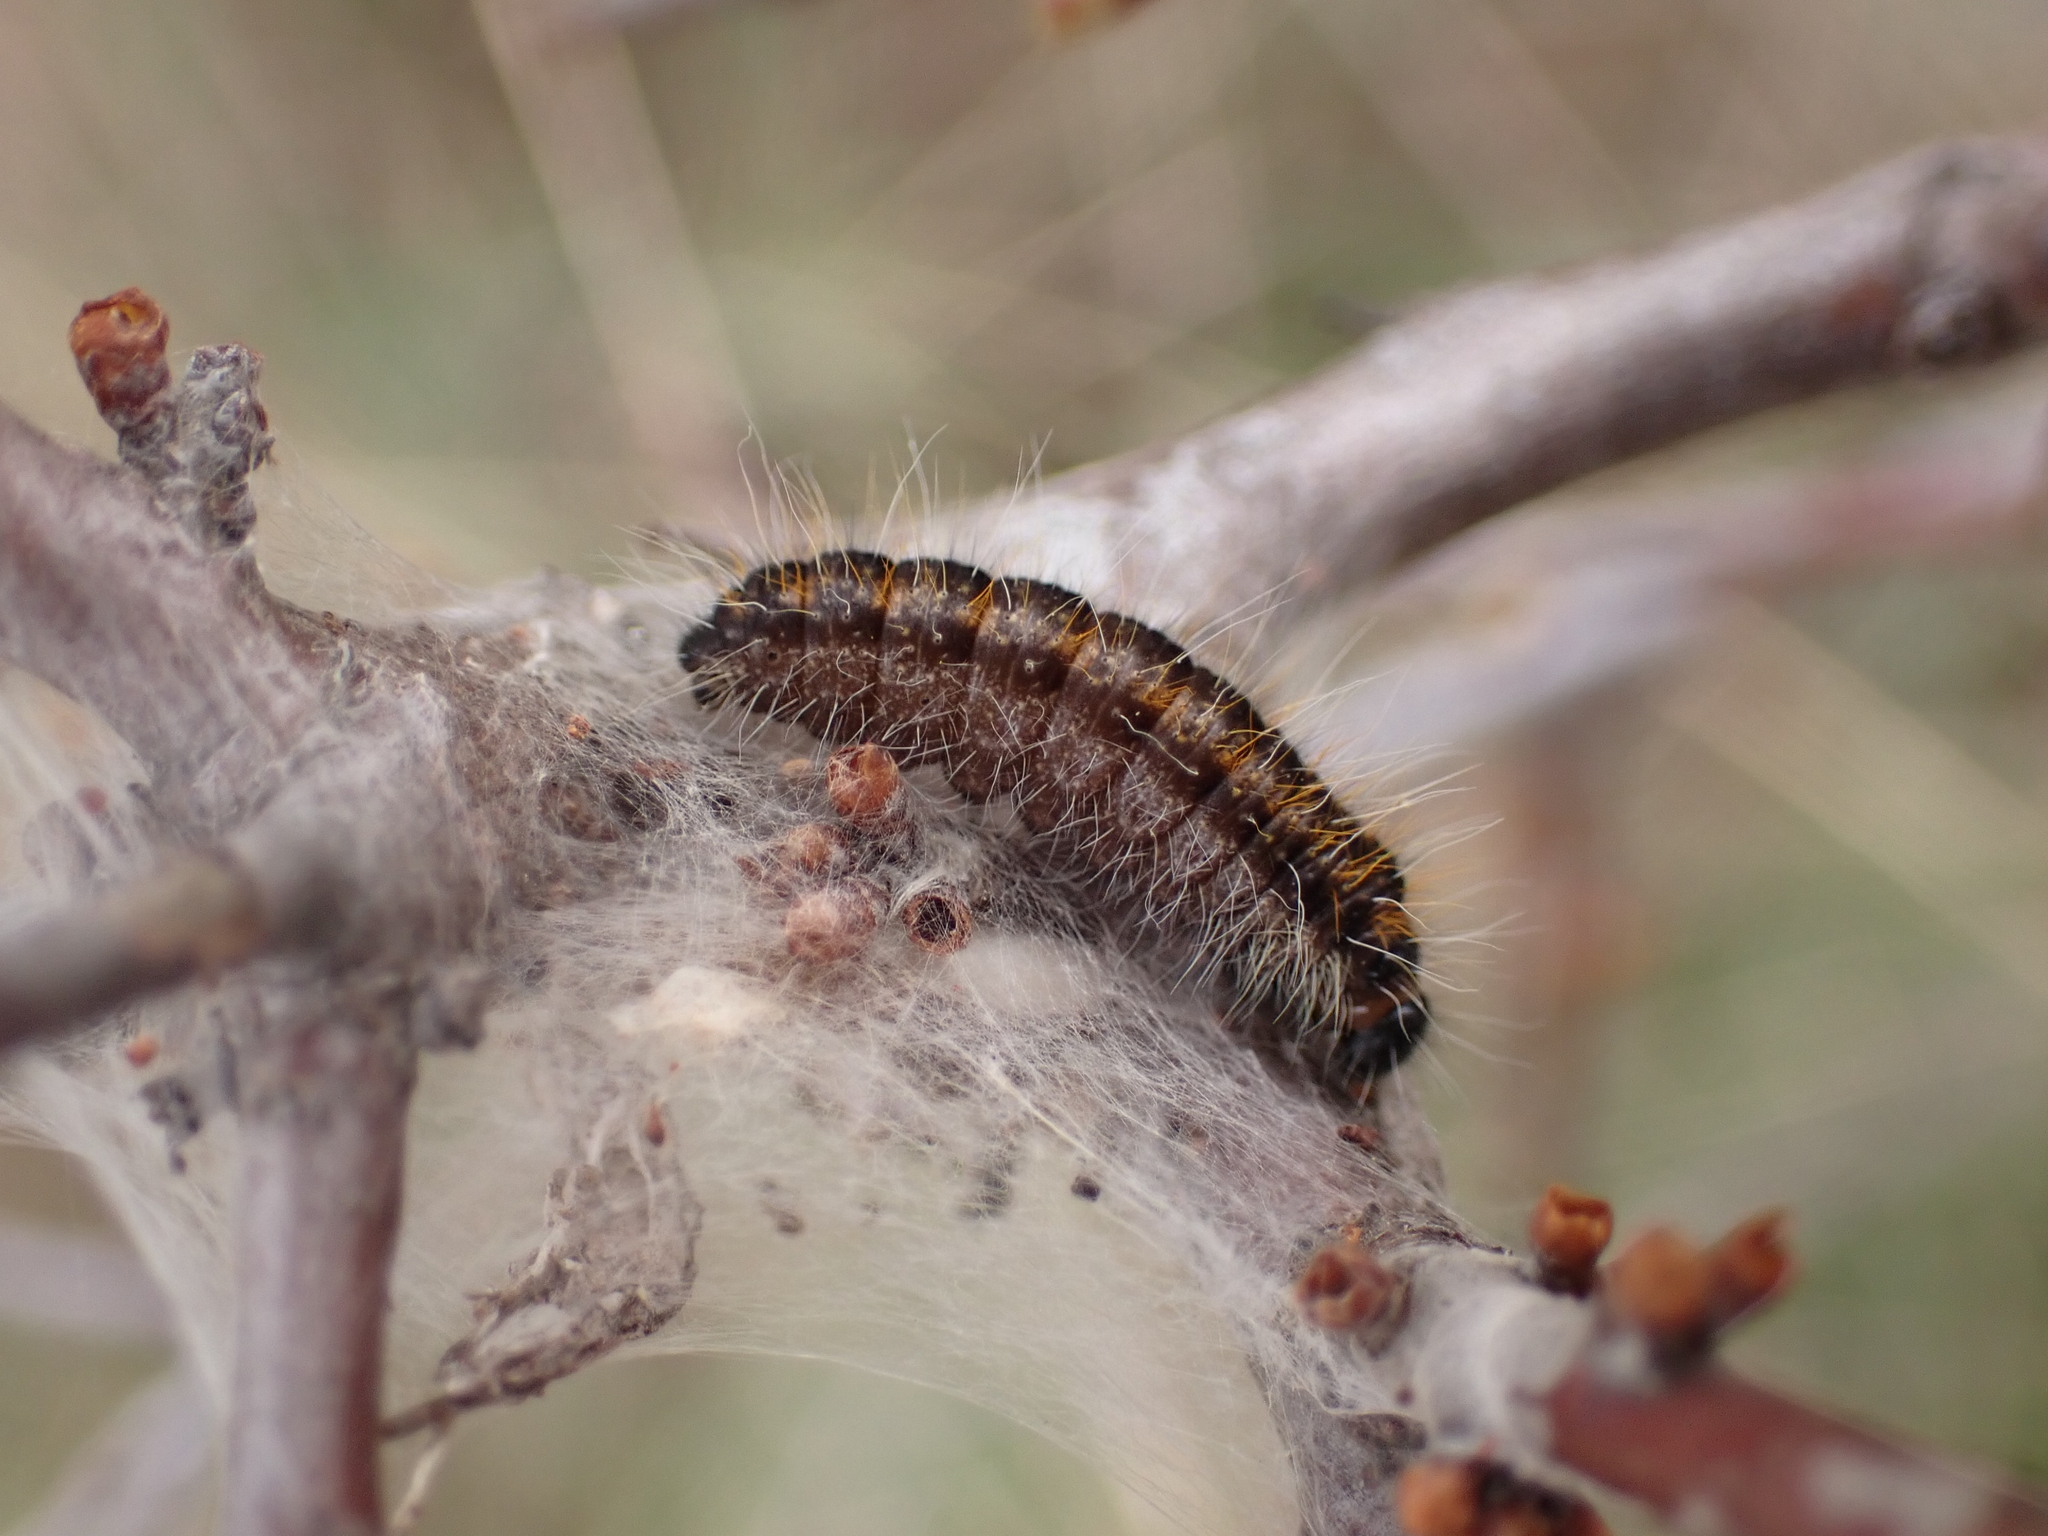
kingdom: Animalia
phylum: Arthropoda
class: Insecta
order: Lepidoptera
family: Pieridae
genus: Aporia
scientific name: Aporia crataegi
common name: Black-veined white
